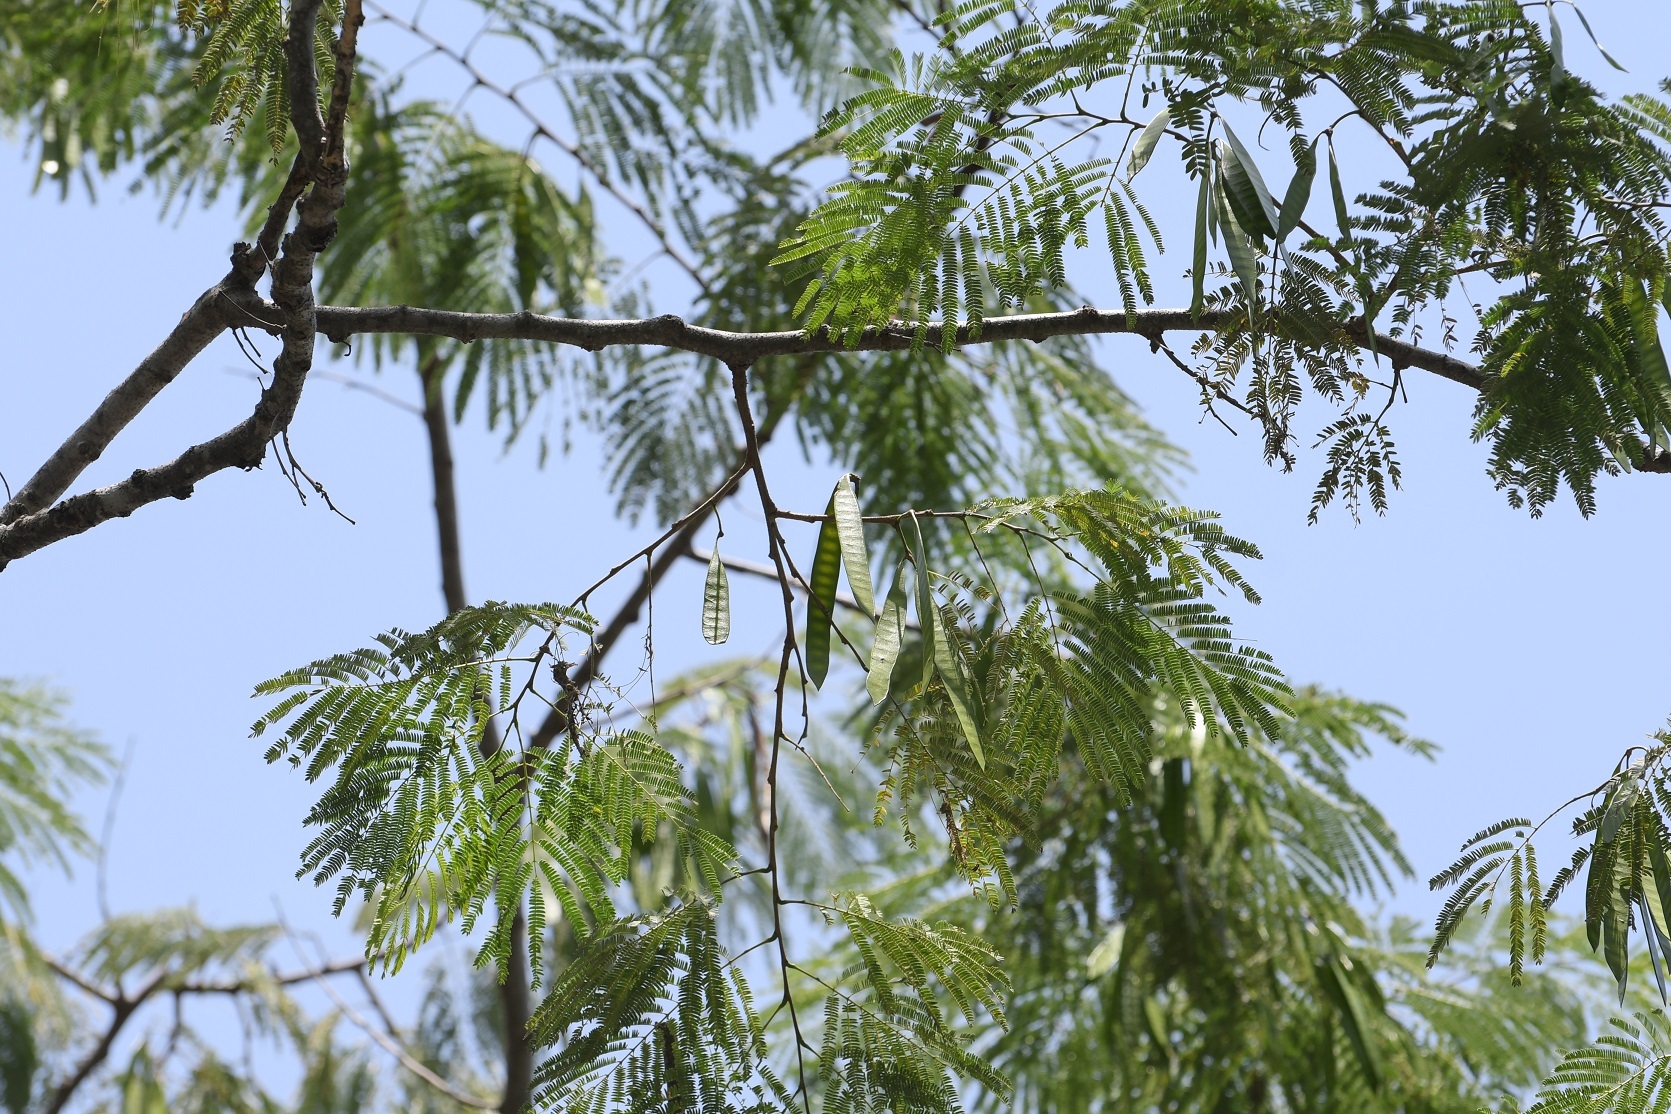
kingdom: Plantae
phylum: Tracheophyta
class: Magnoliopsida
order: Fabales
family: Fabaceae
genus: Leucaena
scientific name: Leucaena diversifolia
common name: Red leucaena
